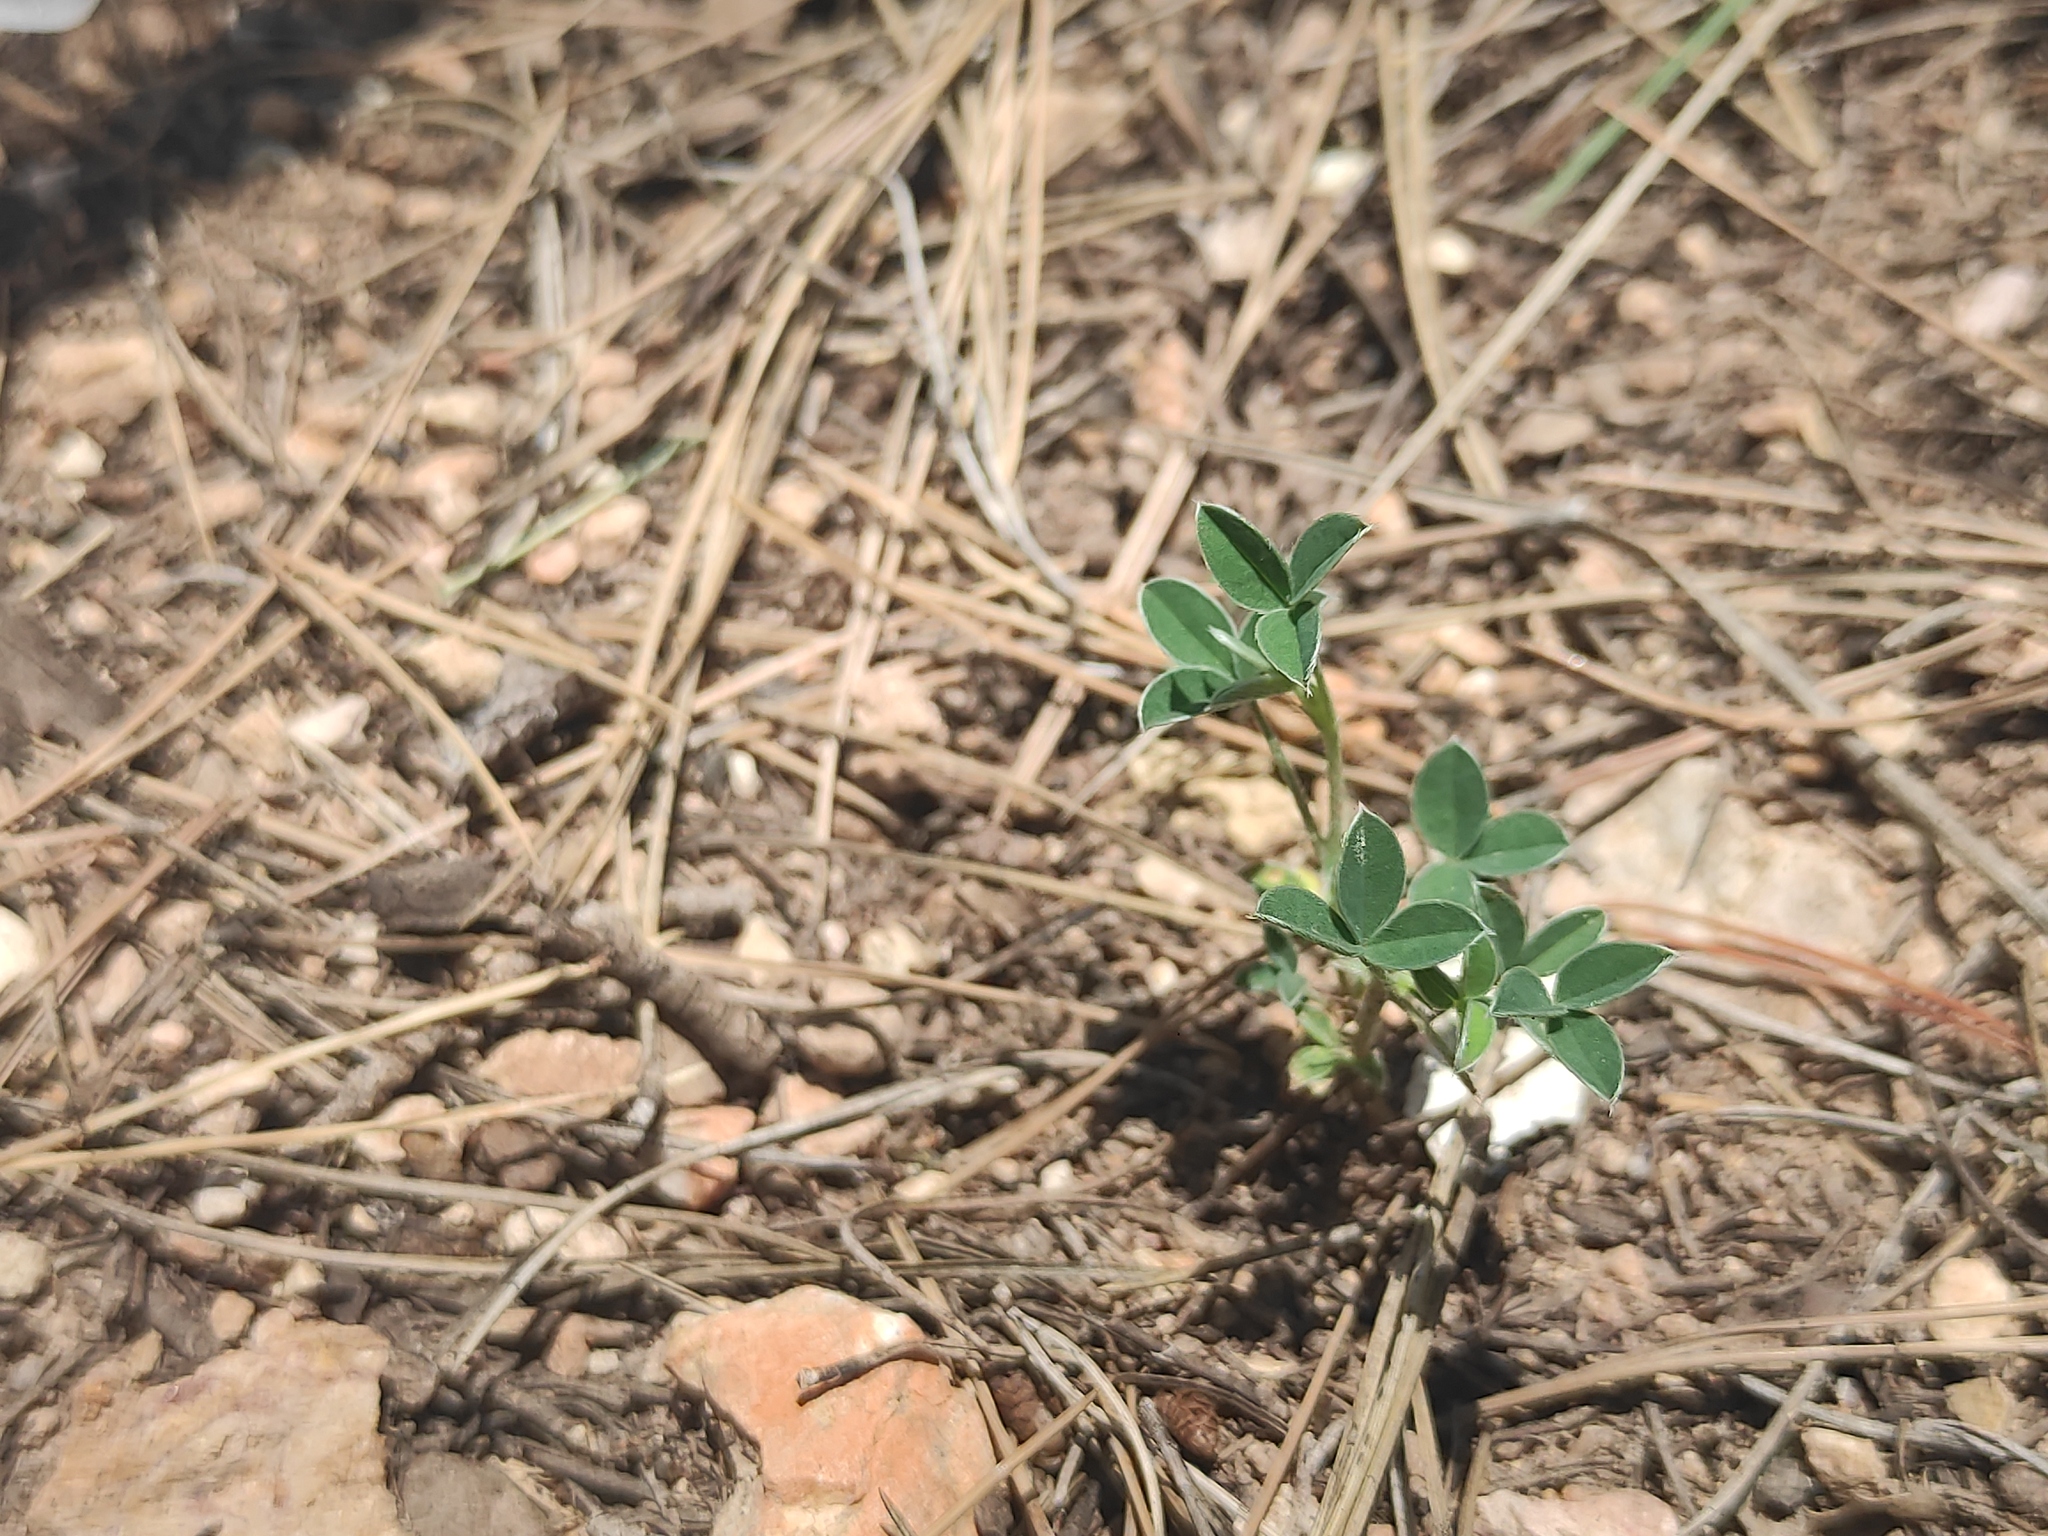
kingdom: Plantae
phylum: Tracheophyta
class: Magnoliopsida
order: Fabales
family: Fabaceae
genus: Argyrolobium
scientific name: Argyrolobium zanonii
